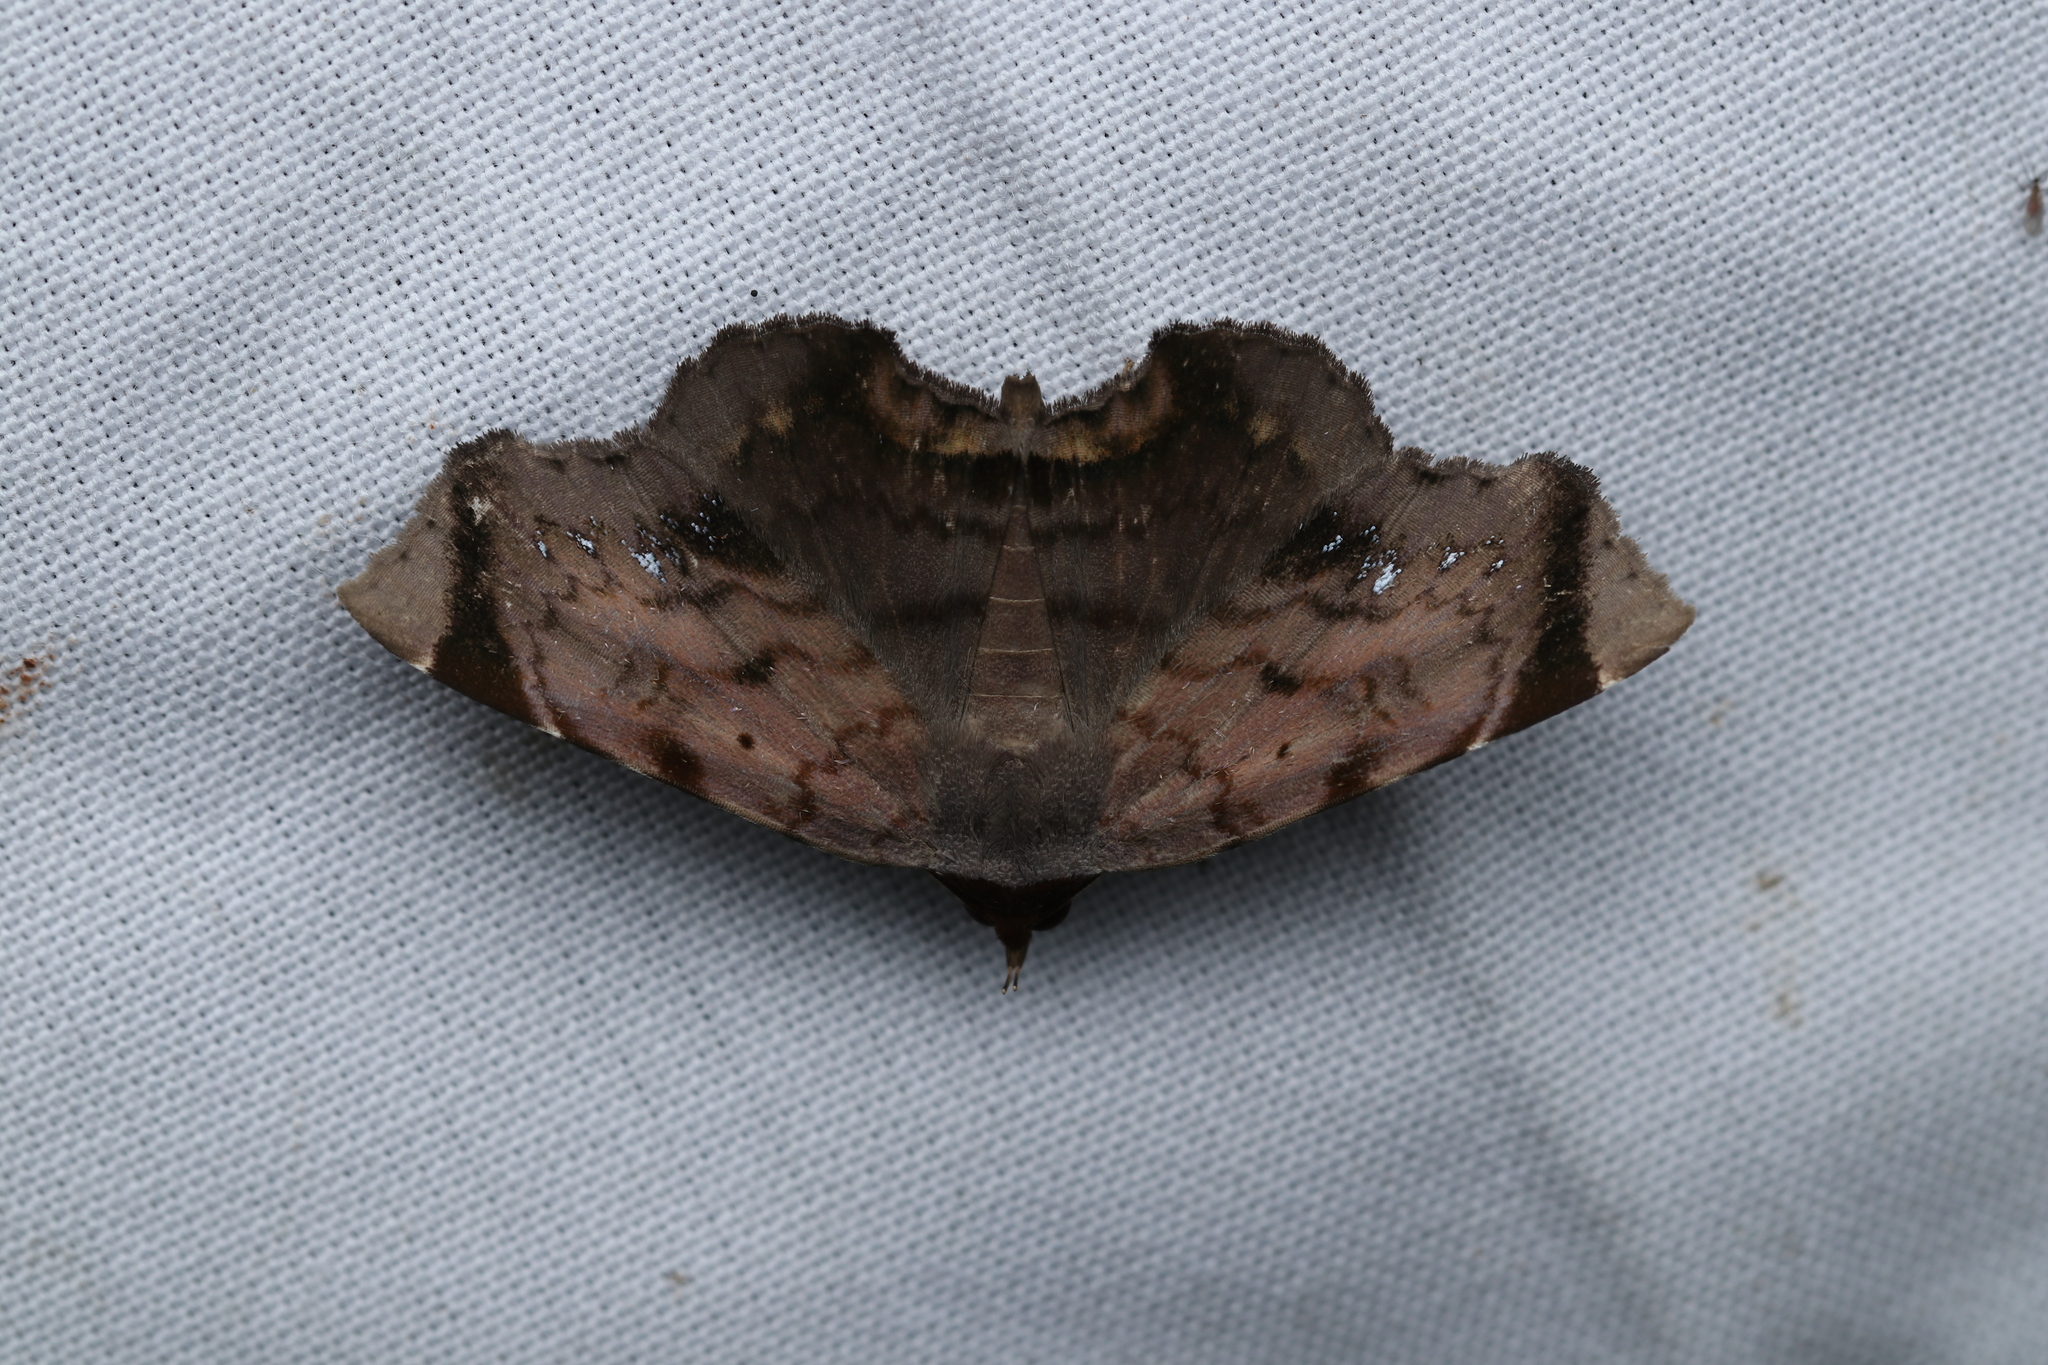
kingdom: Animalia
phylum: Arthropoda
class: Insecta
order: Lepidoptera
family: Erebidae
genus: Mecodina
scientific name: Mecodina albodentata
